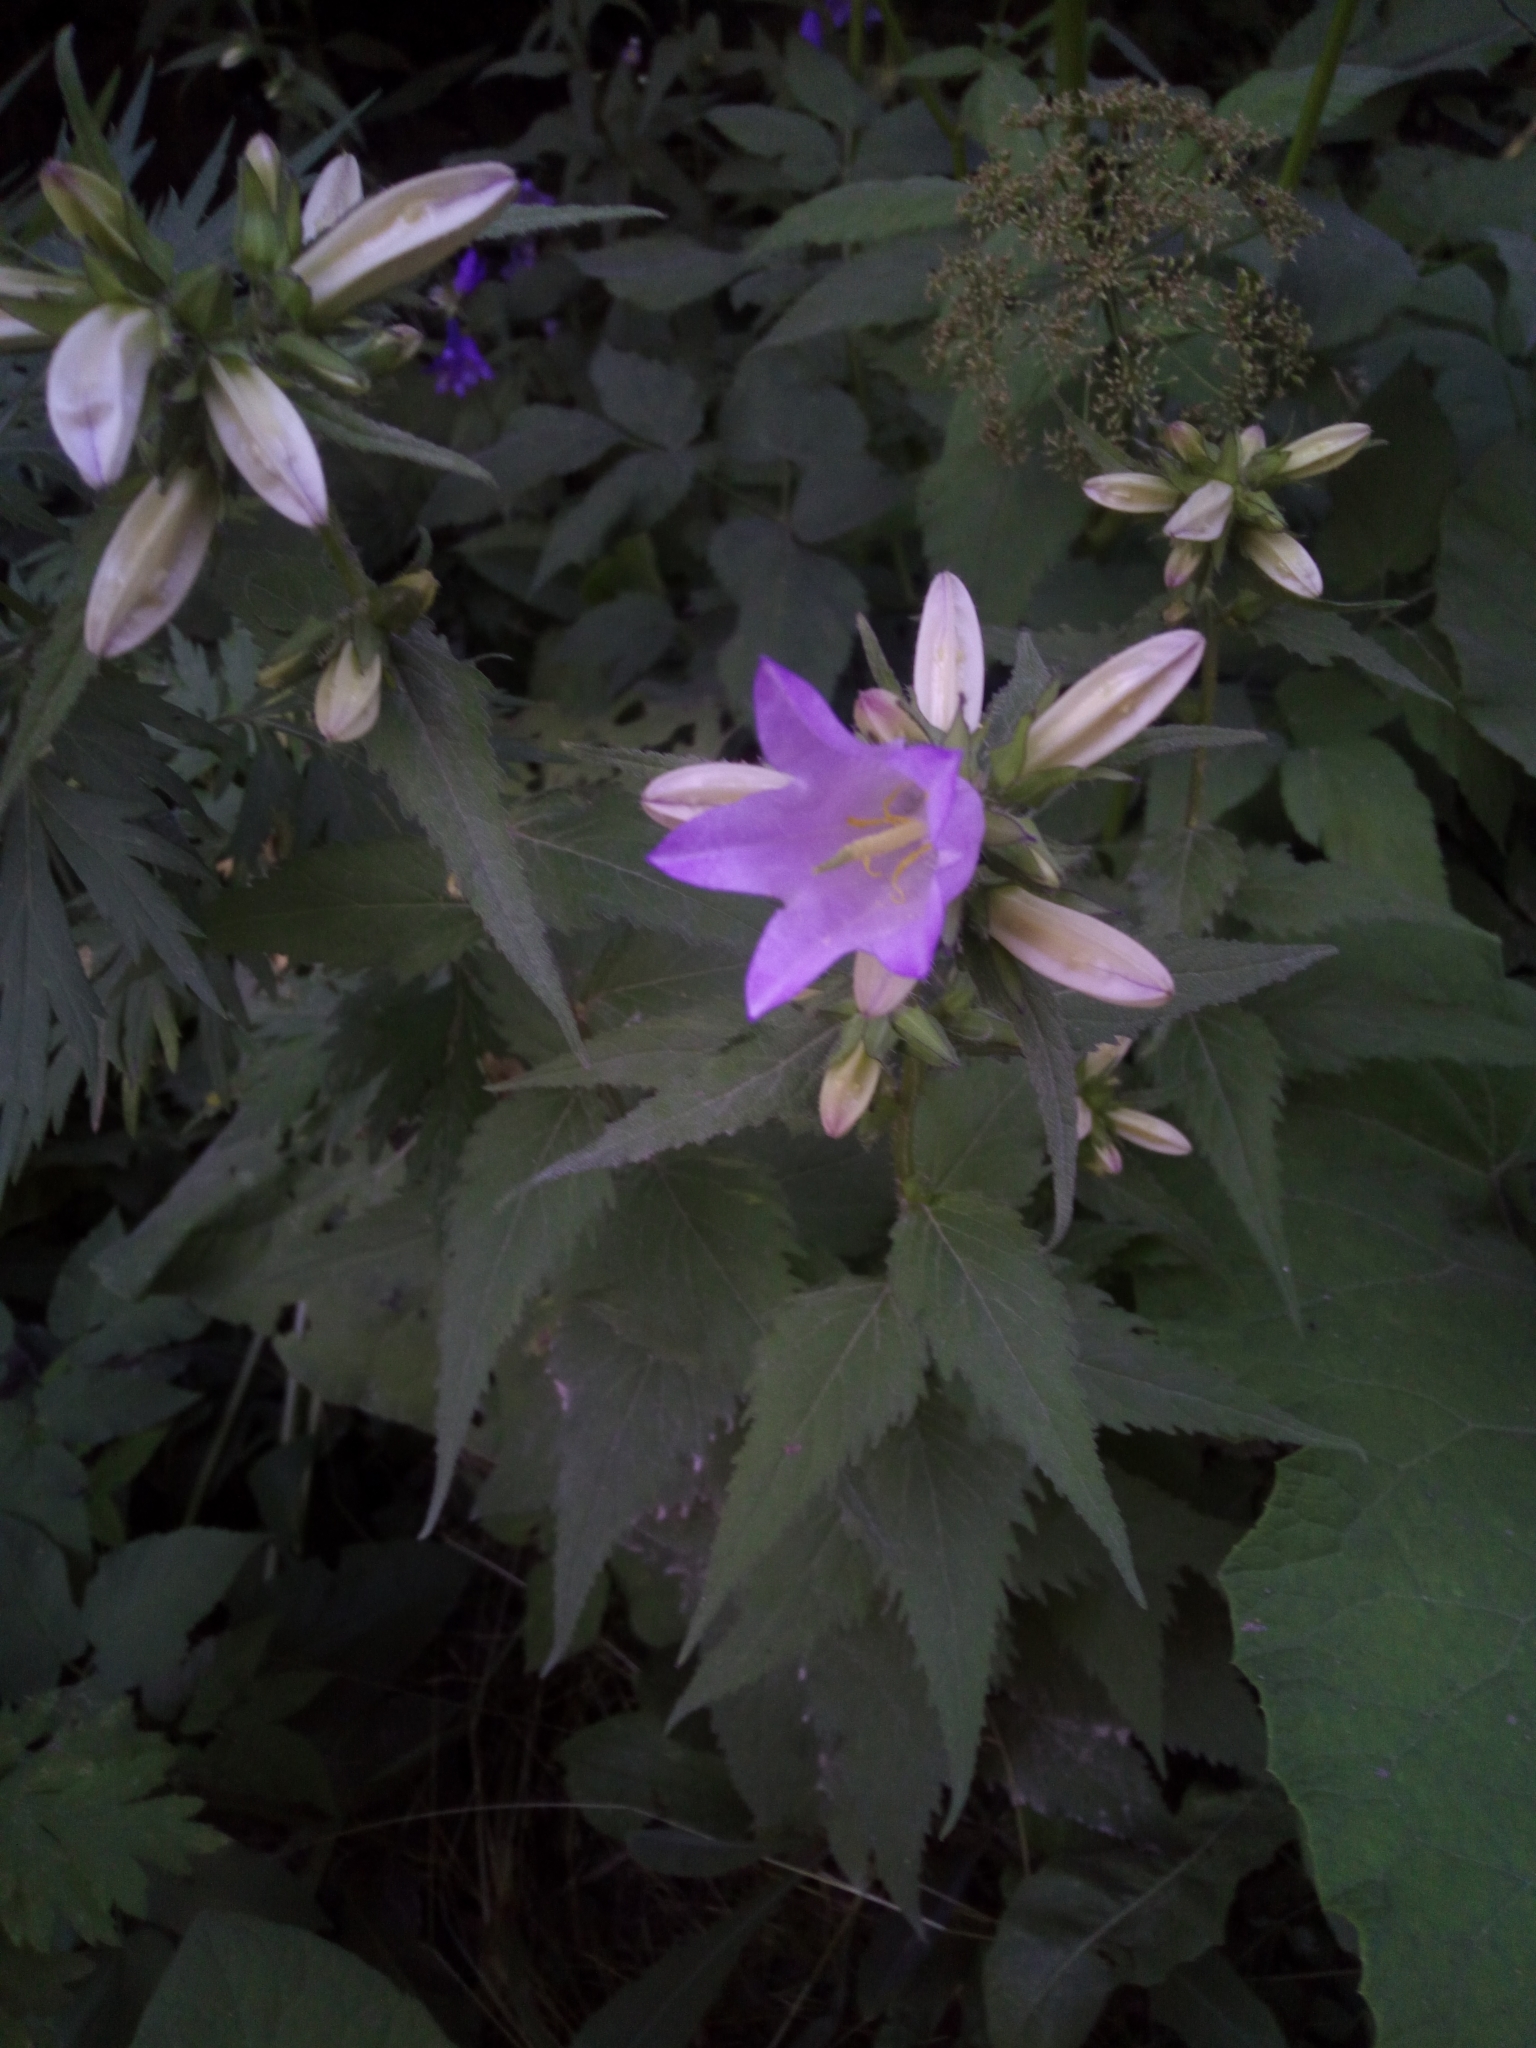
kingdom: Plantae
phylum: Tracheophyta
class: Magnoliopsida
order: Asterales
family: Campanulaceae
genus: Campanula
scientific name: Campanula trachelium
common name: Nettle-leaved bellflower
